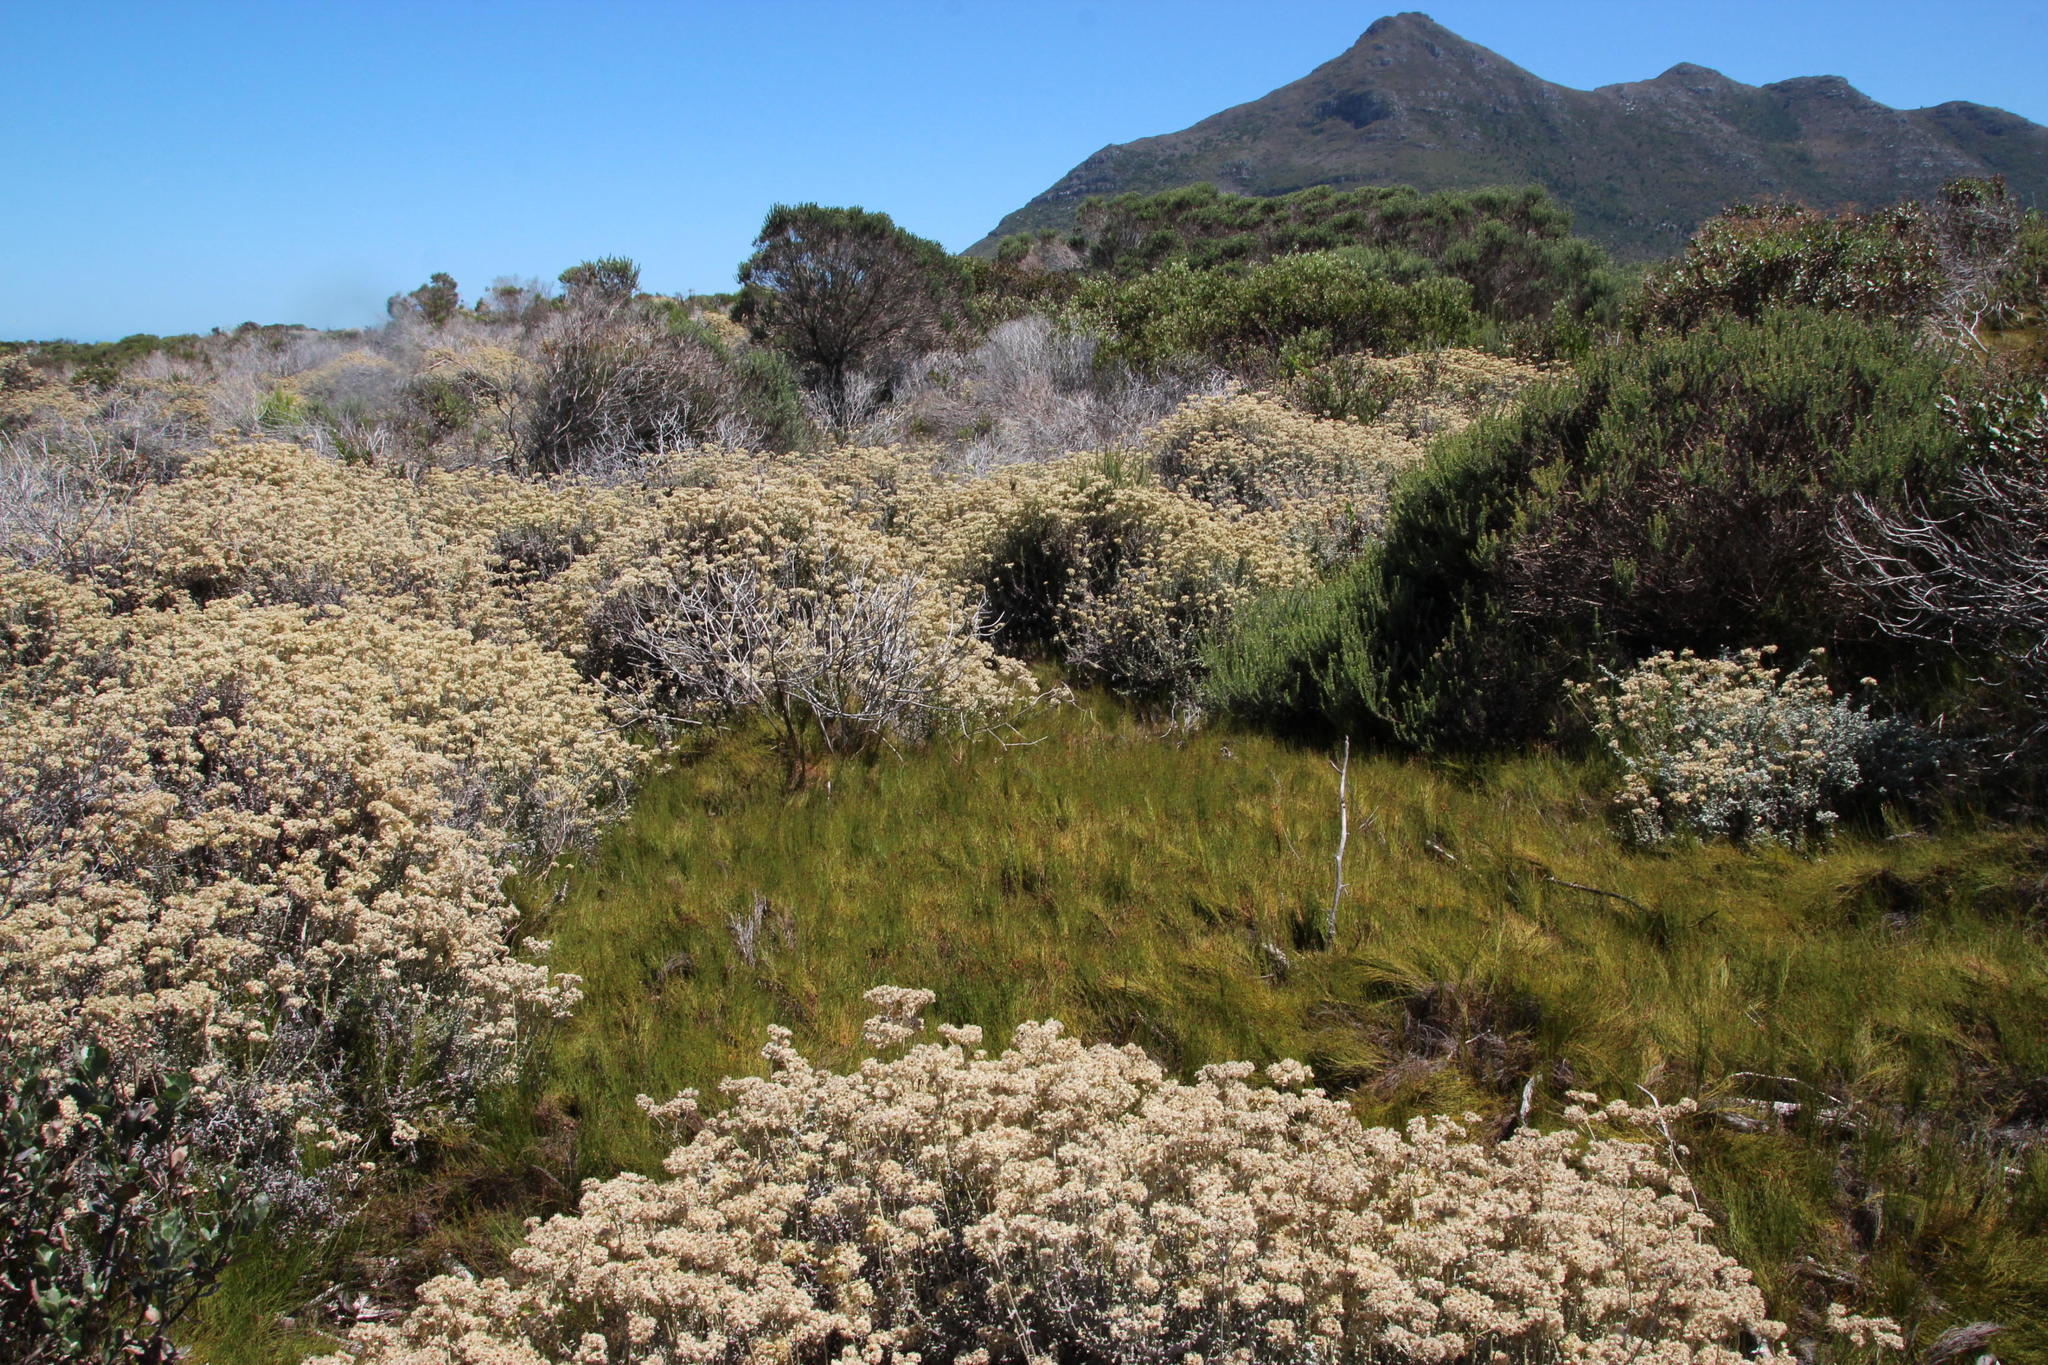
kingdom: Plantae
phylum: Tracheophyta
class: Liliopsida
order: Poales
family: Restionaceae
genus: Restio
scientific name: Restio eleocharis
